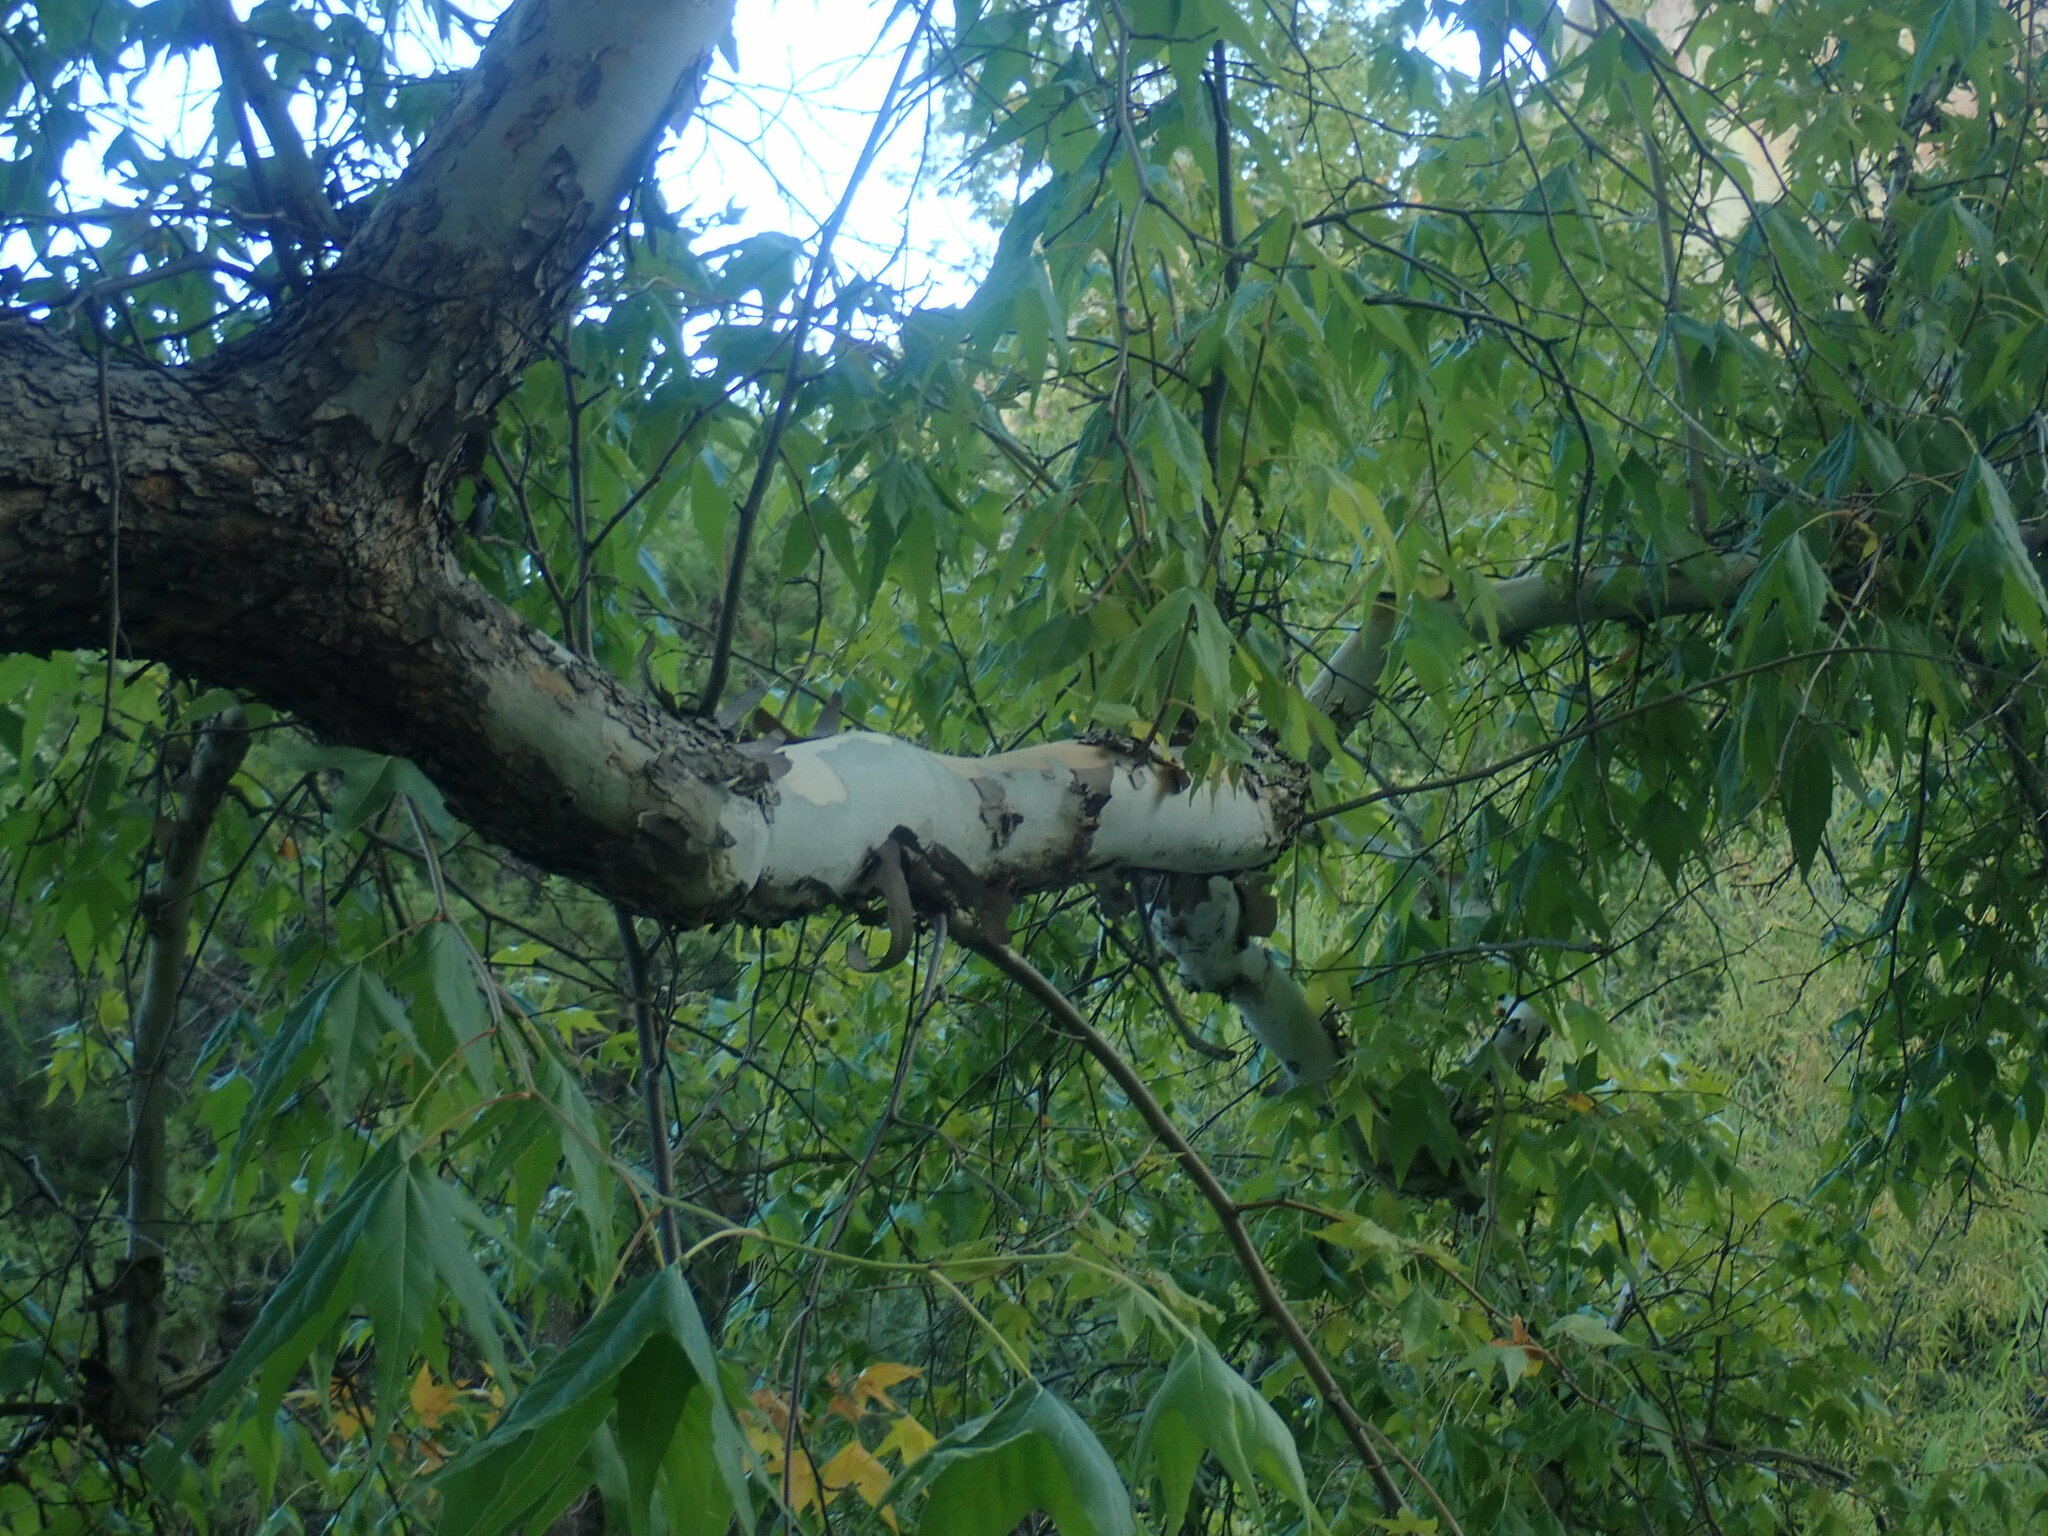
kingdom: Plantae
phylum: Tracheophyta
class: Magnoliopsida
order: Proteales
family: Platanaceae
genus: Platanus
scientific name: Platanus wrightii
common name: Arizona sycamore
